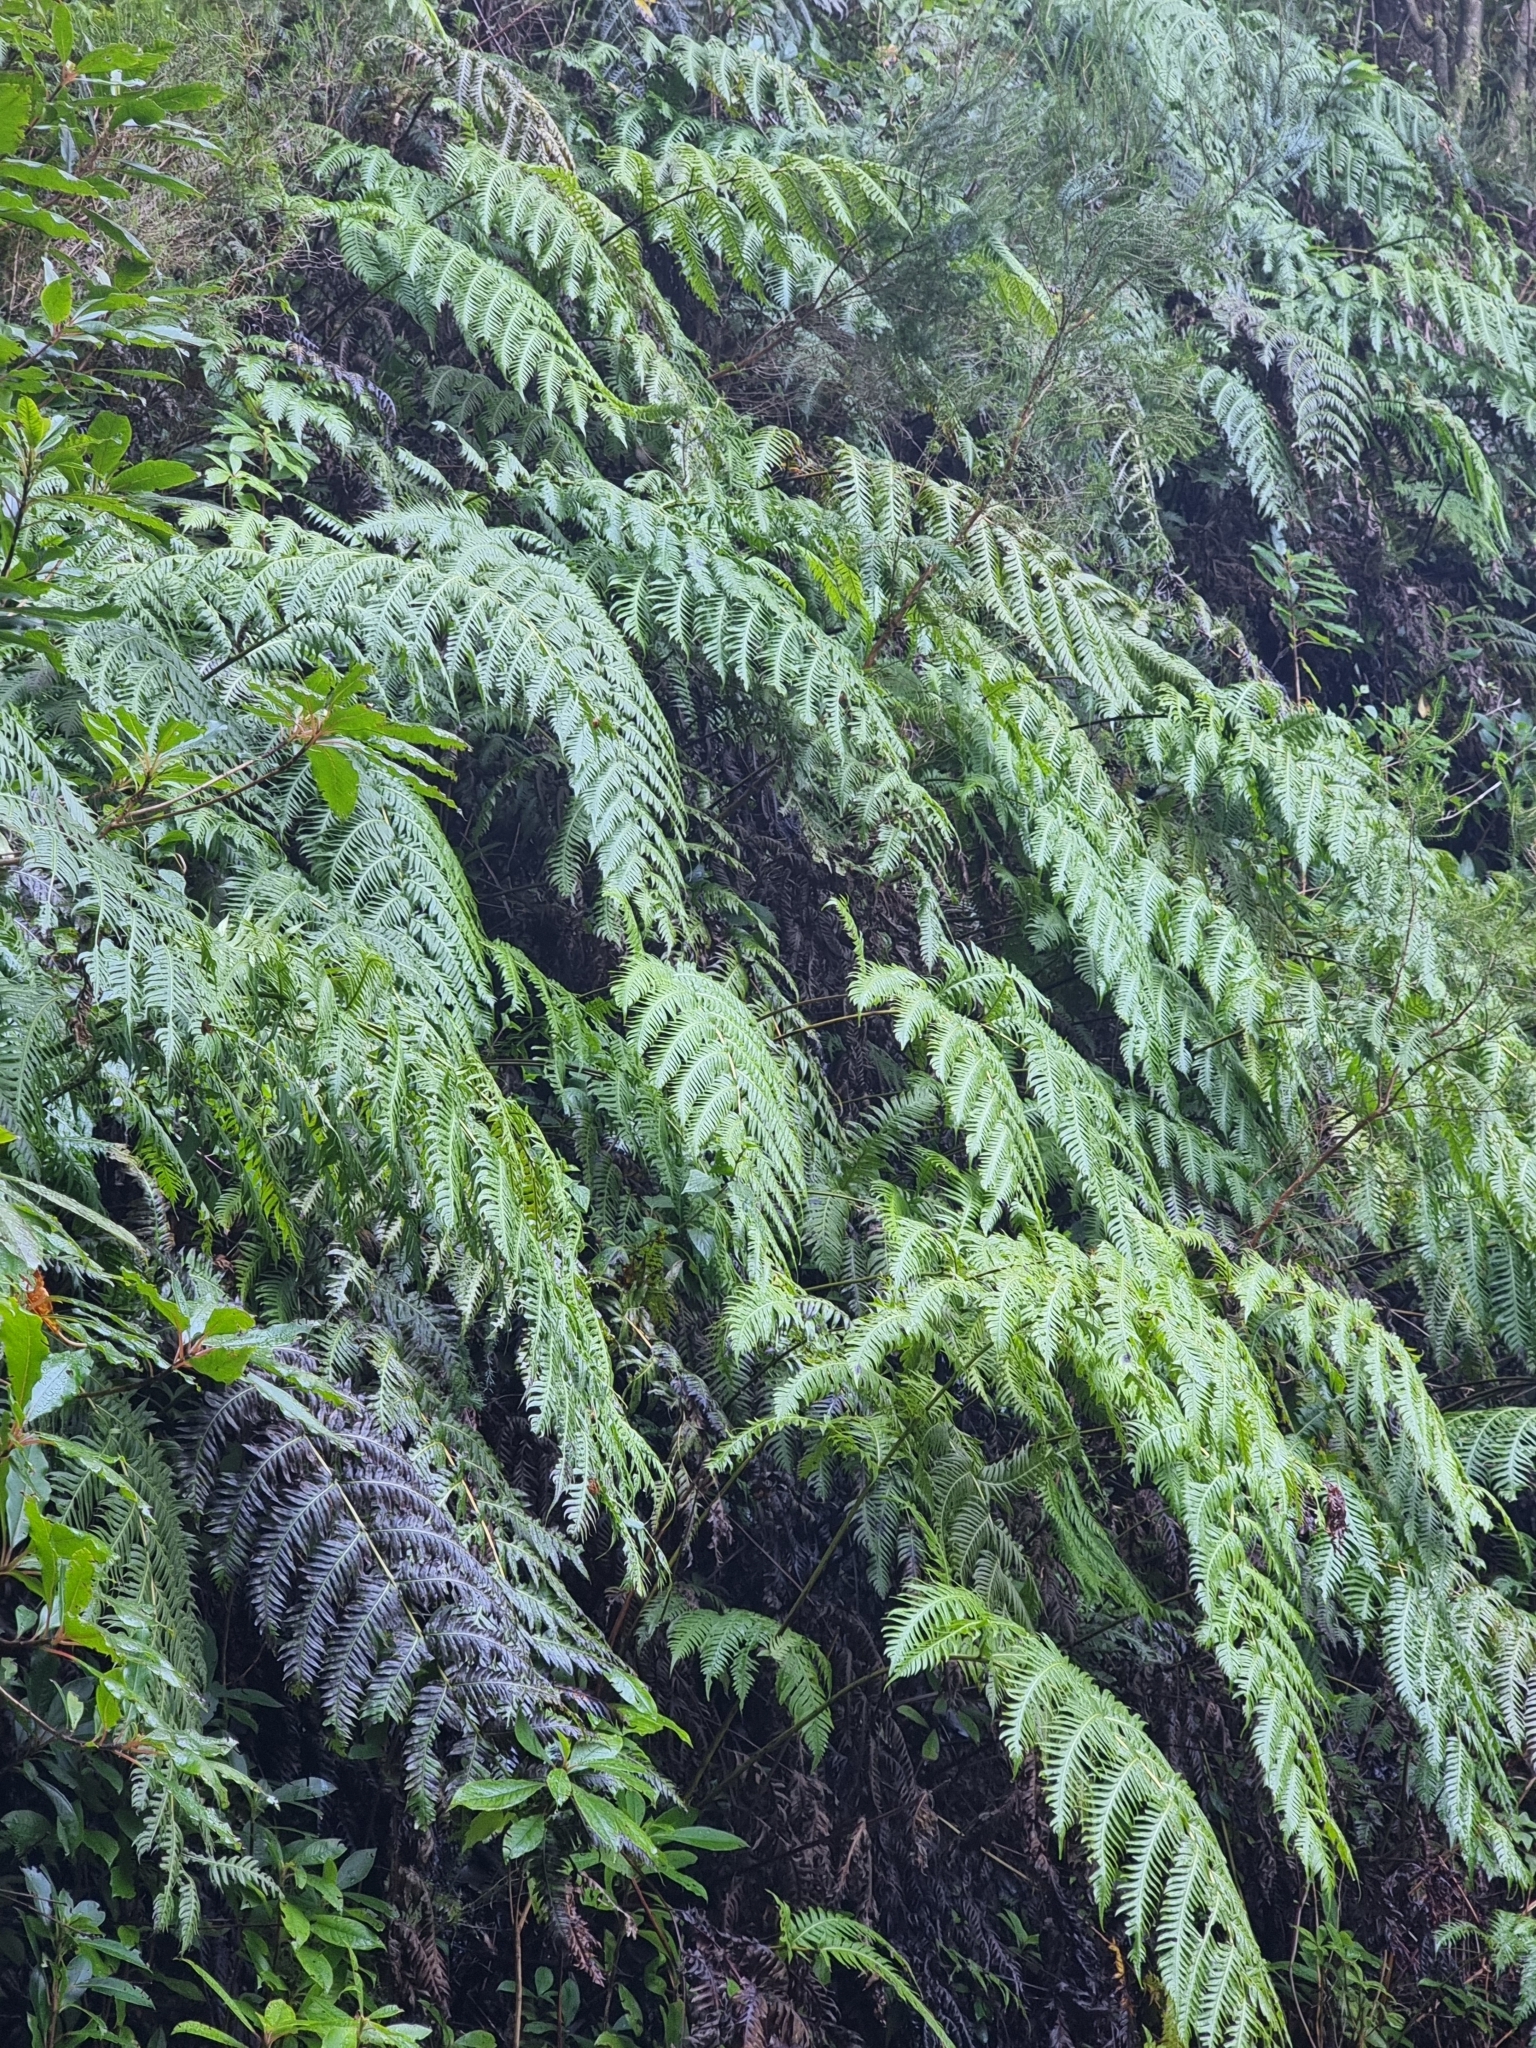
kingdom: Plantae
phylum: Tracheophyta
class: Polypodiopsida
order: Polypodiales
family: Blechnaceae
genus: Woodwardia
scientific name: Woodwardia radicans
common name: Rooting chainfern
